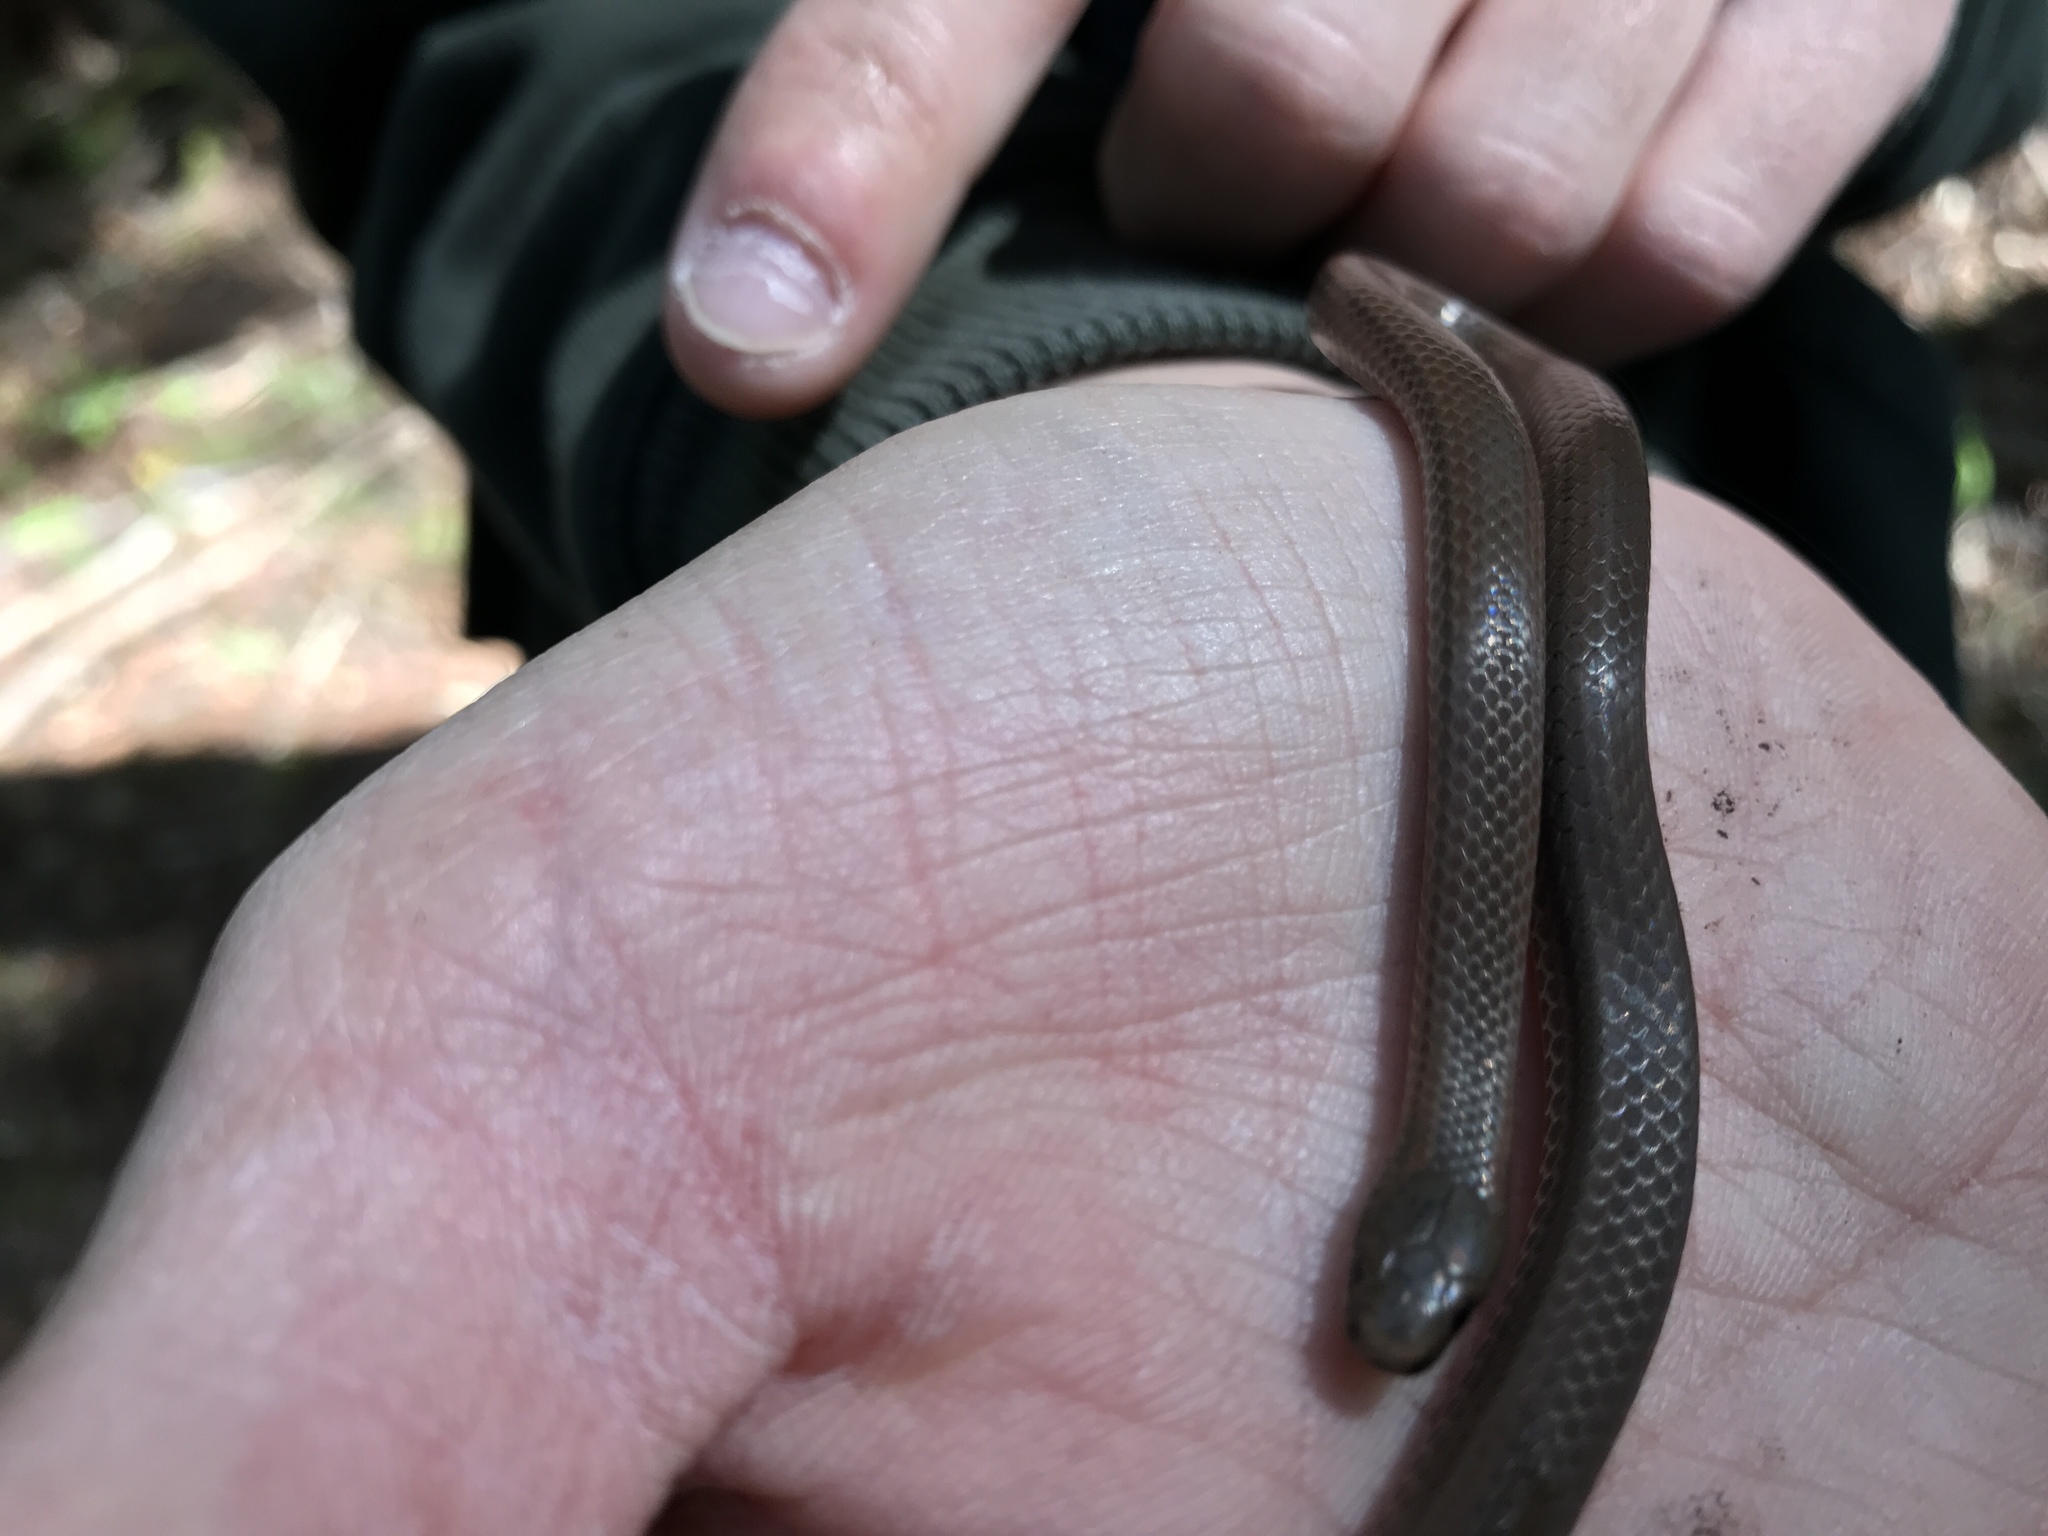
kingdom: Animalia
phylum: Chordata
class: Squamata
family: Colubridae
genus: Contia
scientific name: Contia longicaudae
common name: Forest sharp-tailed snake
